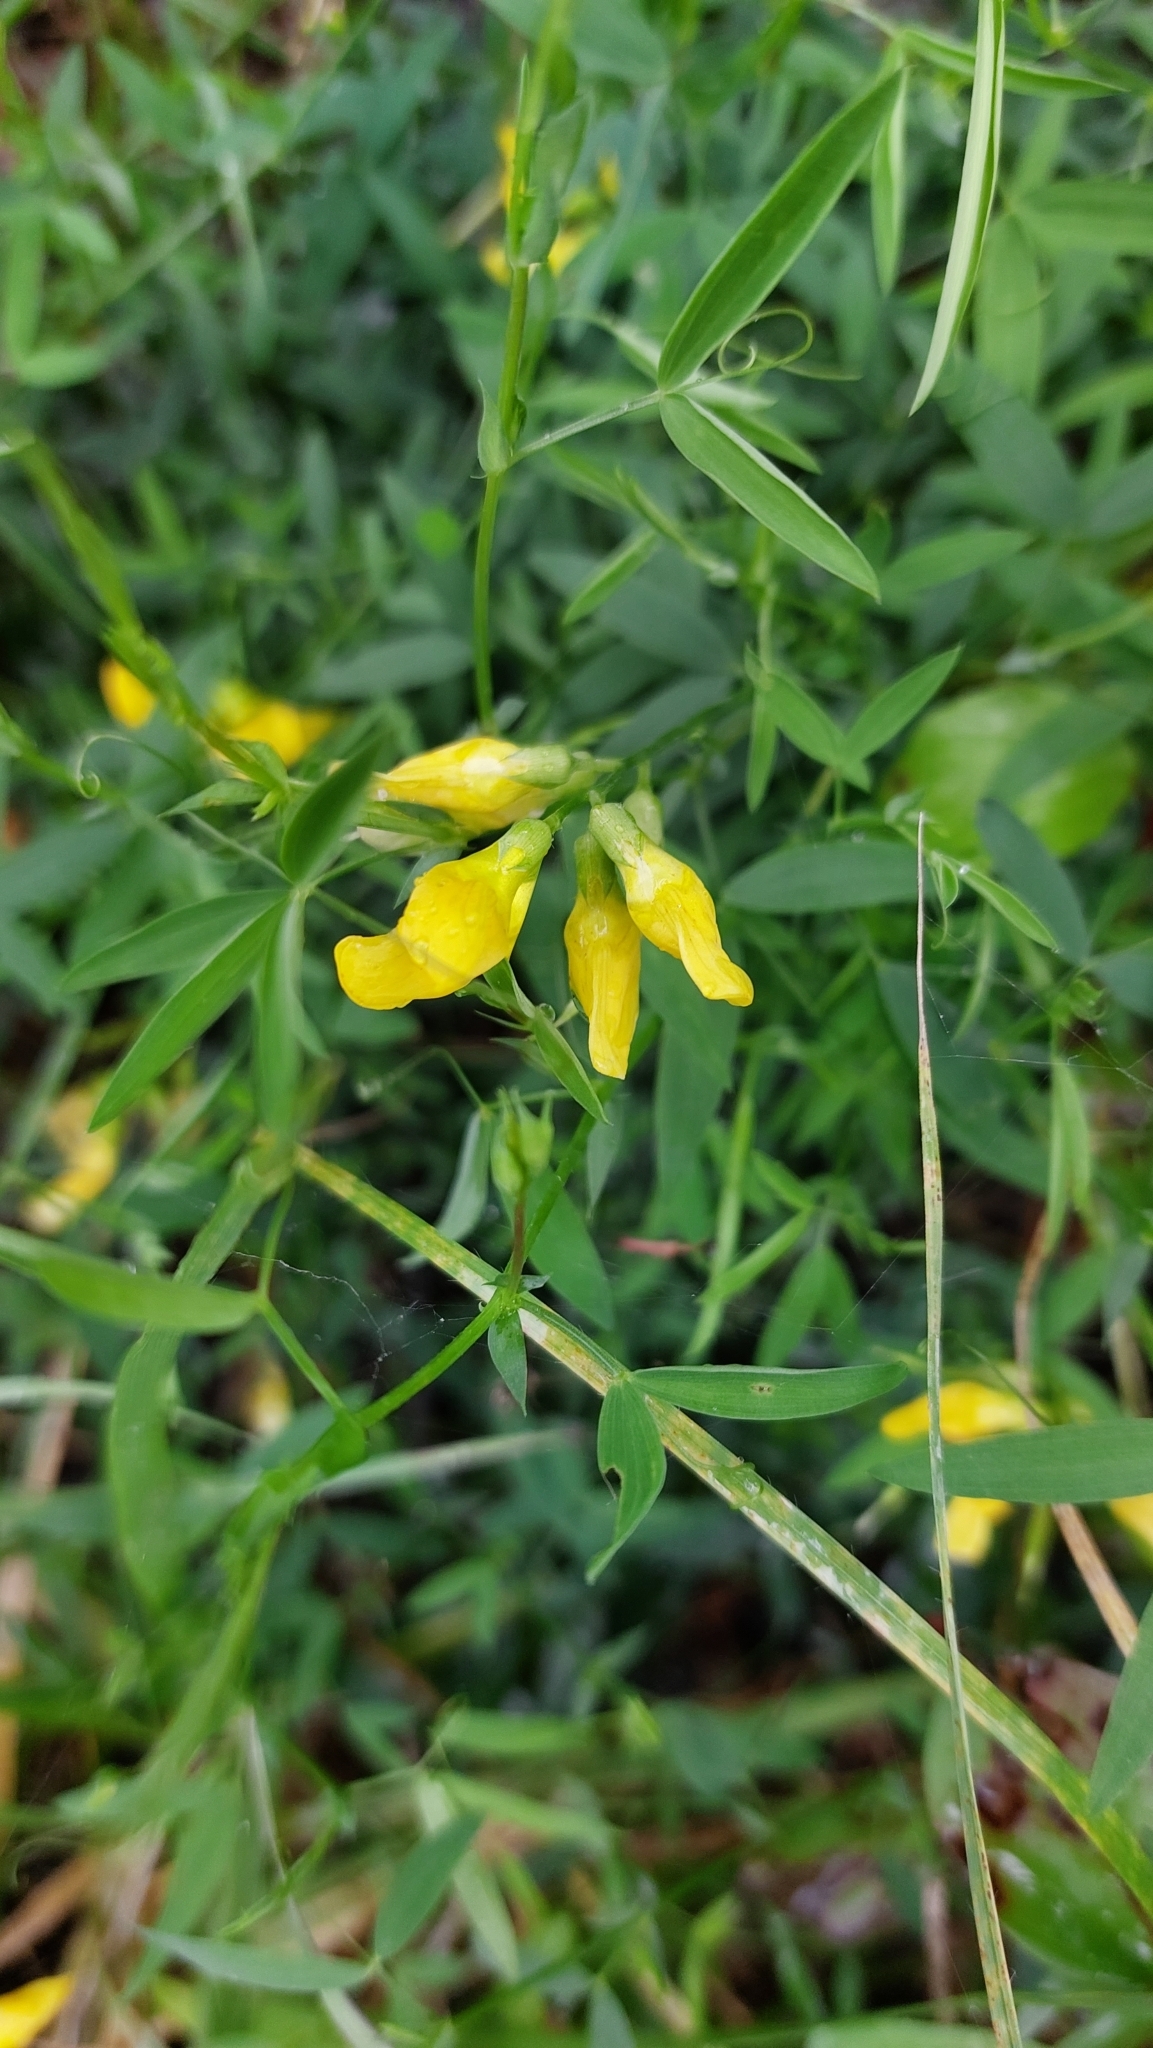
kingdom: Plantae
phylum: Tracheophyta
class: Magnoliopsida
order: Fabales
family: Fabaceae
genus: Lathyrus
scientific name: Lathyrus pratensis
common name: Meadow vetchling
